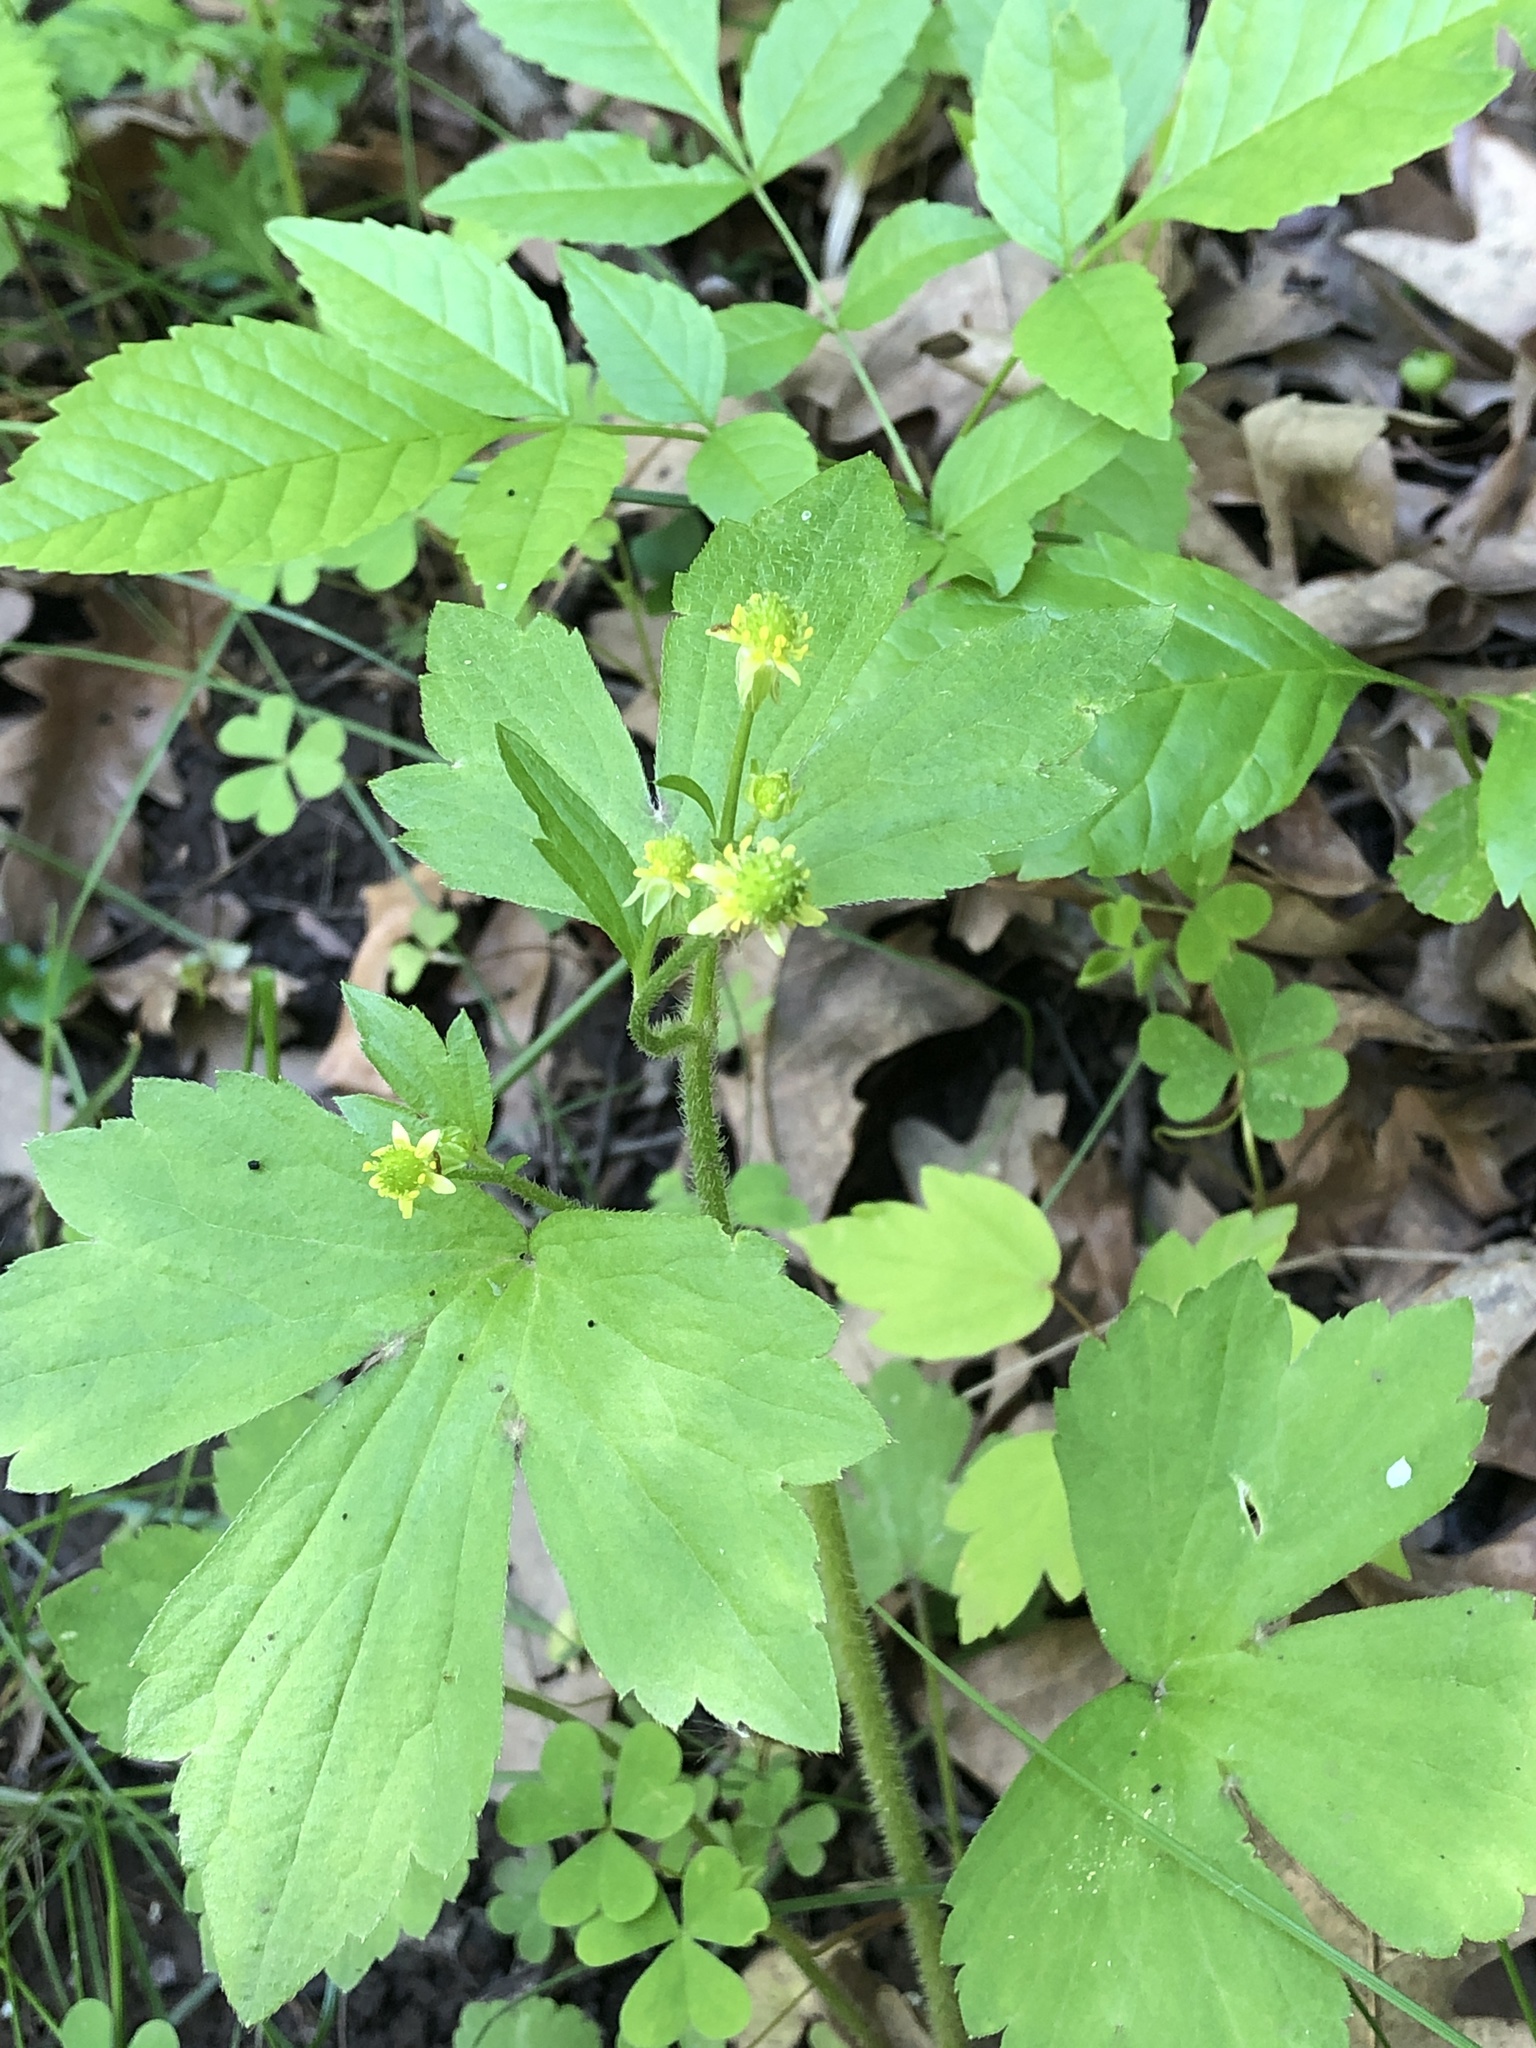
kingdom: Plantae
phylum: Tracheophyta
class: Magnoliopsida
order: Ranunculales
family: Ranunculaceae
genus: Ranunculus
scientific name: Ranunculus recurvatus
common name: Blisterwort
